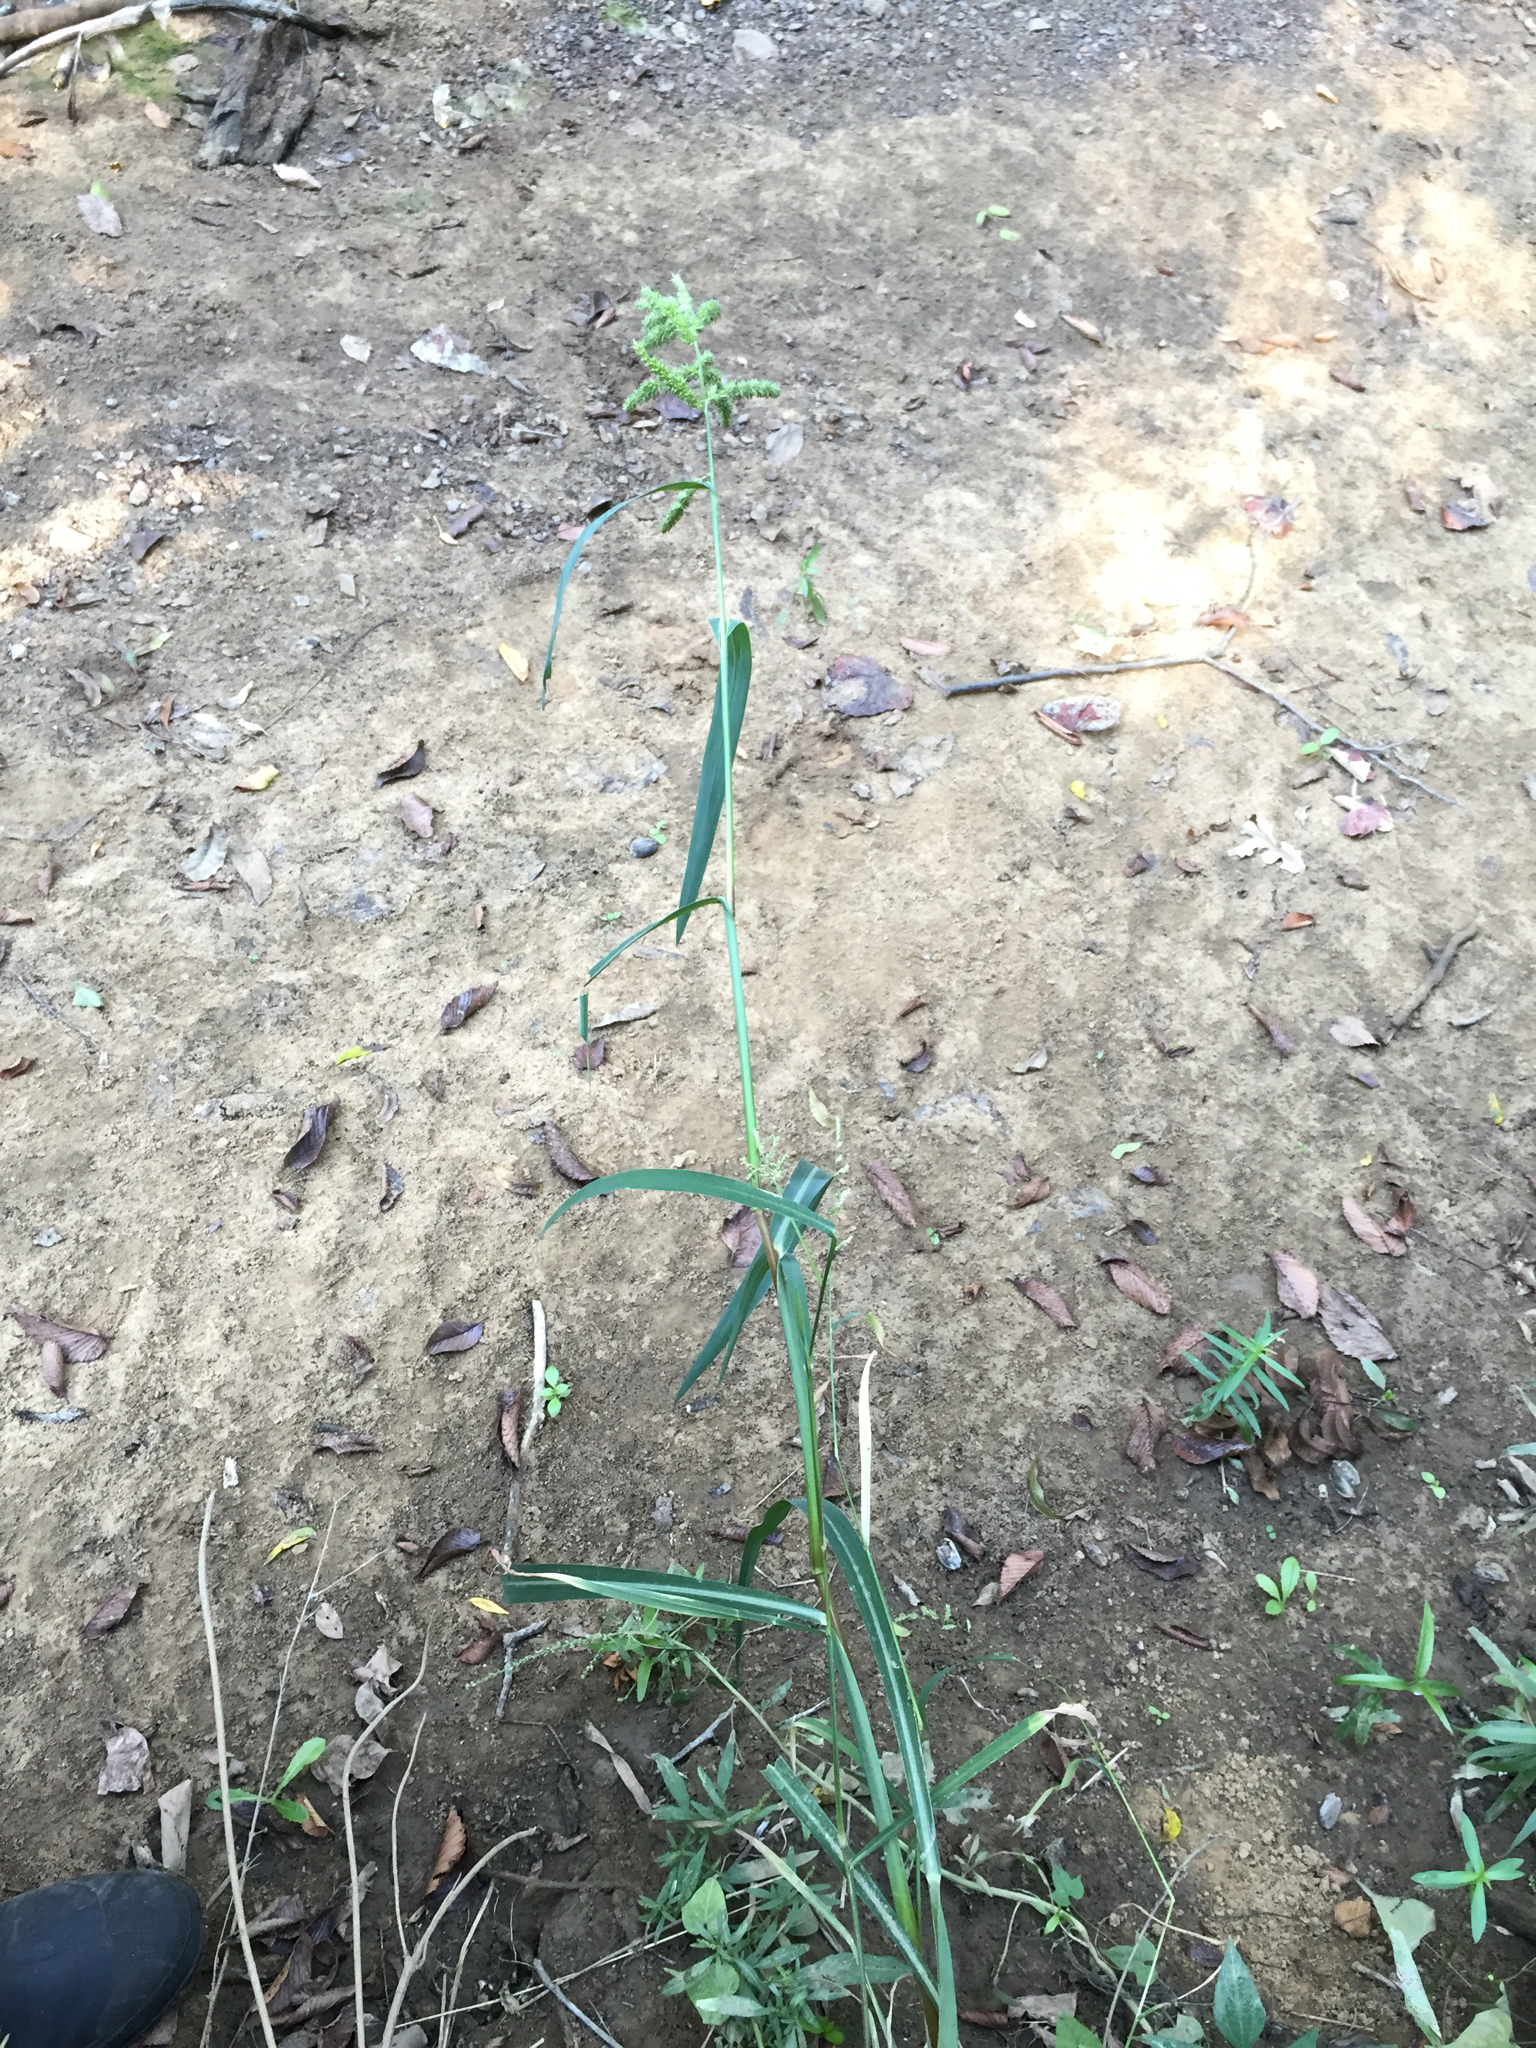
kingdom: Plantae
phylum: Tracheophyta
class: Liliopsida
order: Poales
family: Poaceae
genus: Echinochloa
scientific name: Echinochloa crus-galli
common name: Cockspur
